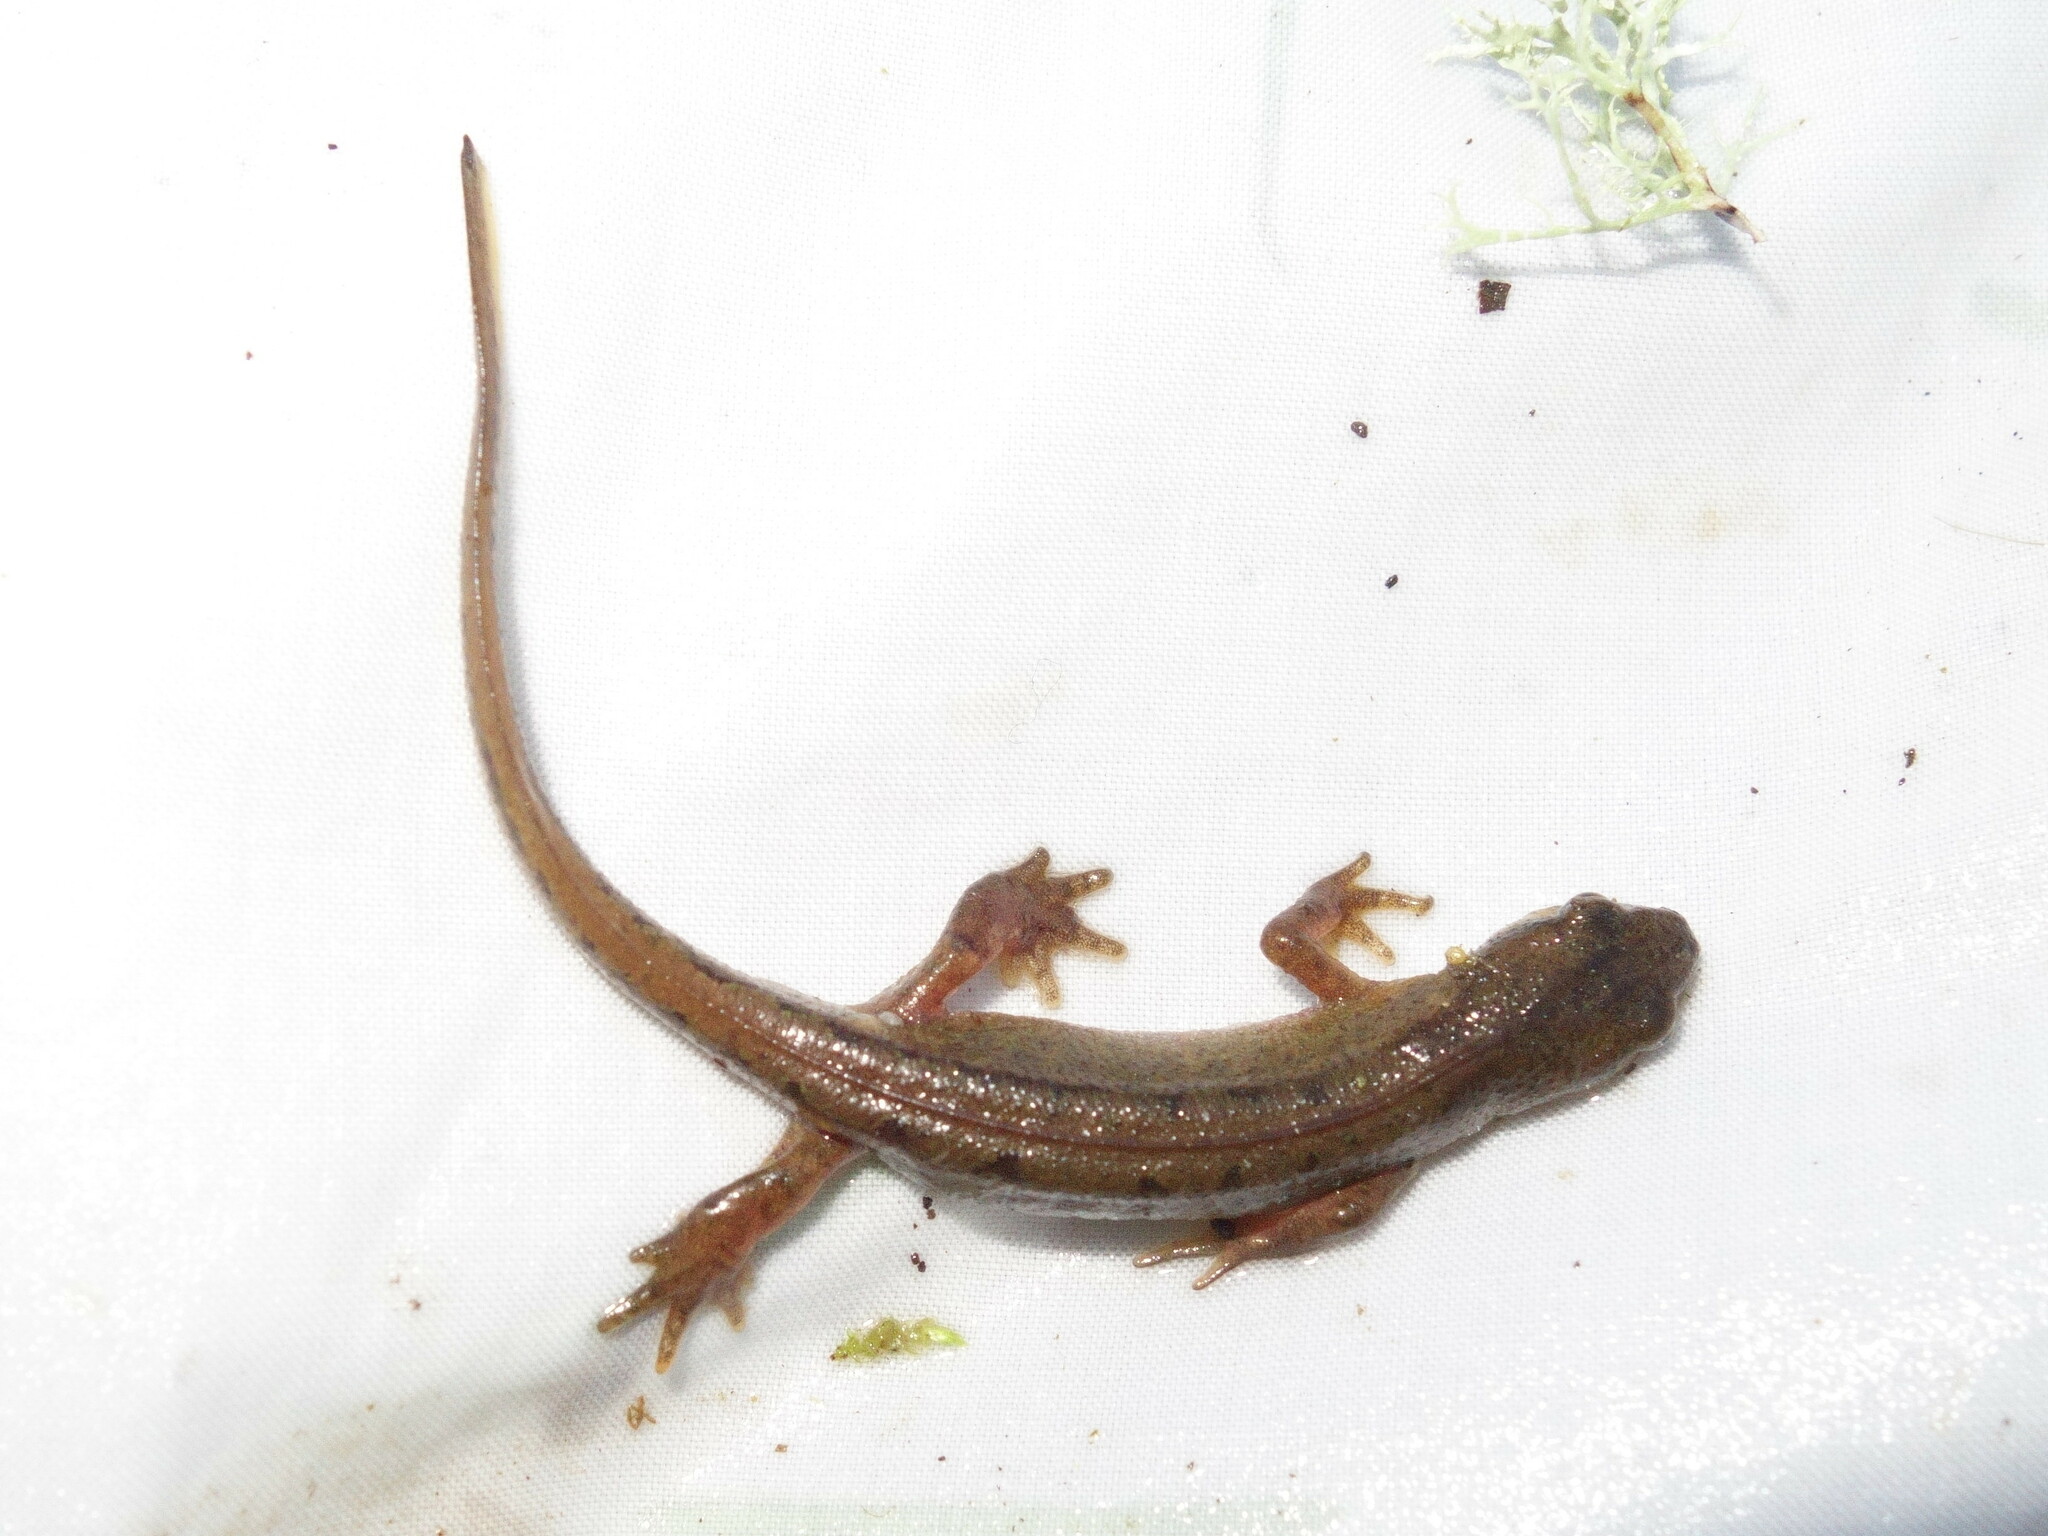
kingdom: Animalia
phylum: Chordata
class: Amphibia
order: Caudata
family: Salamandridae
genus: Lissotriton
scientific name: Lissotriton helveticus
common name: Palmate newt
